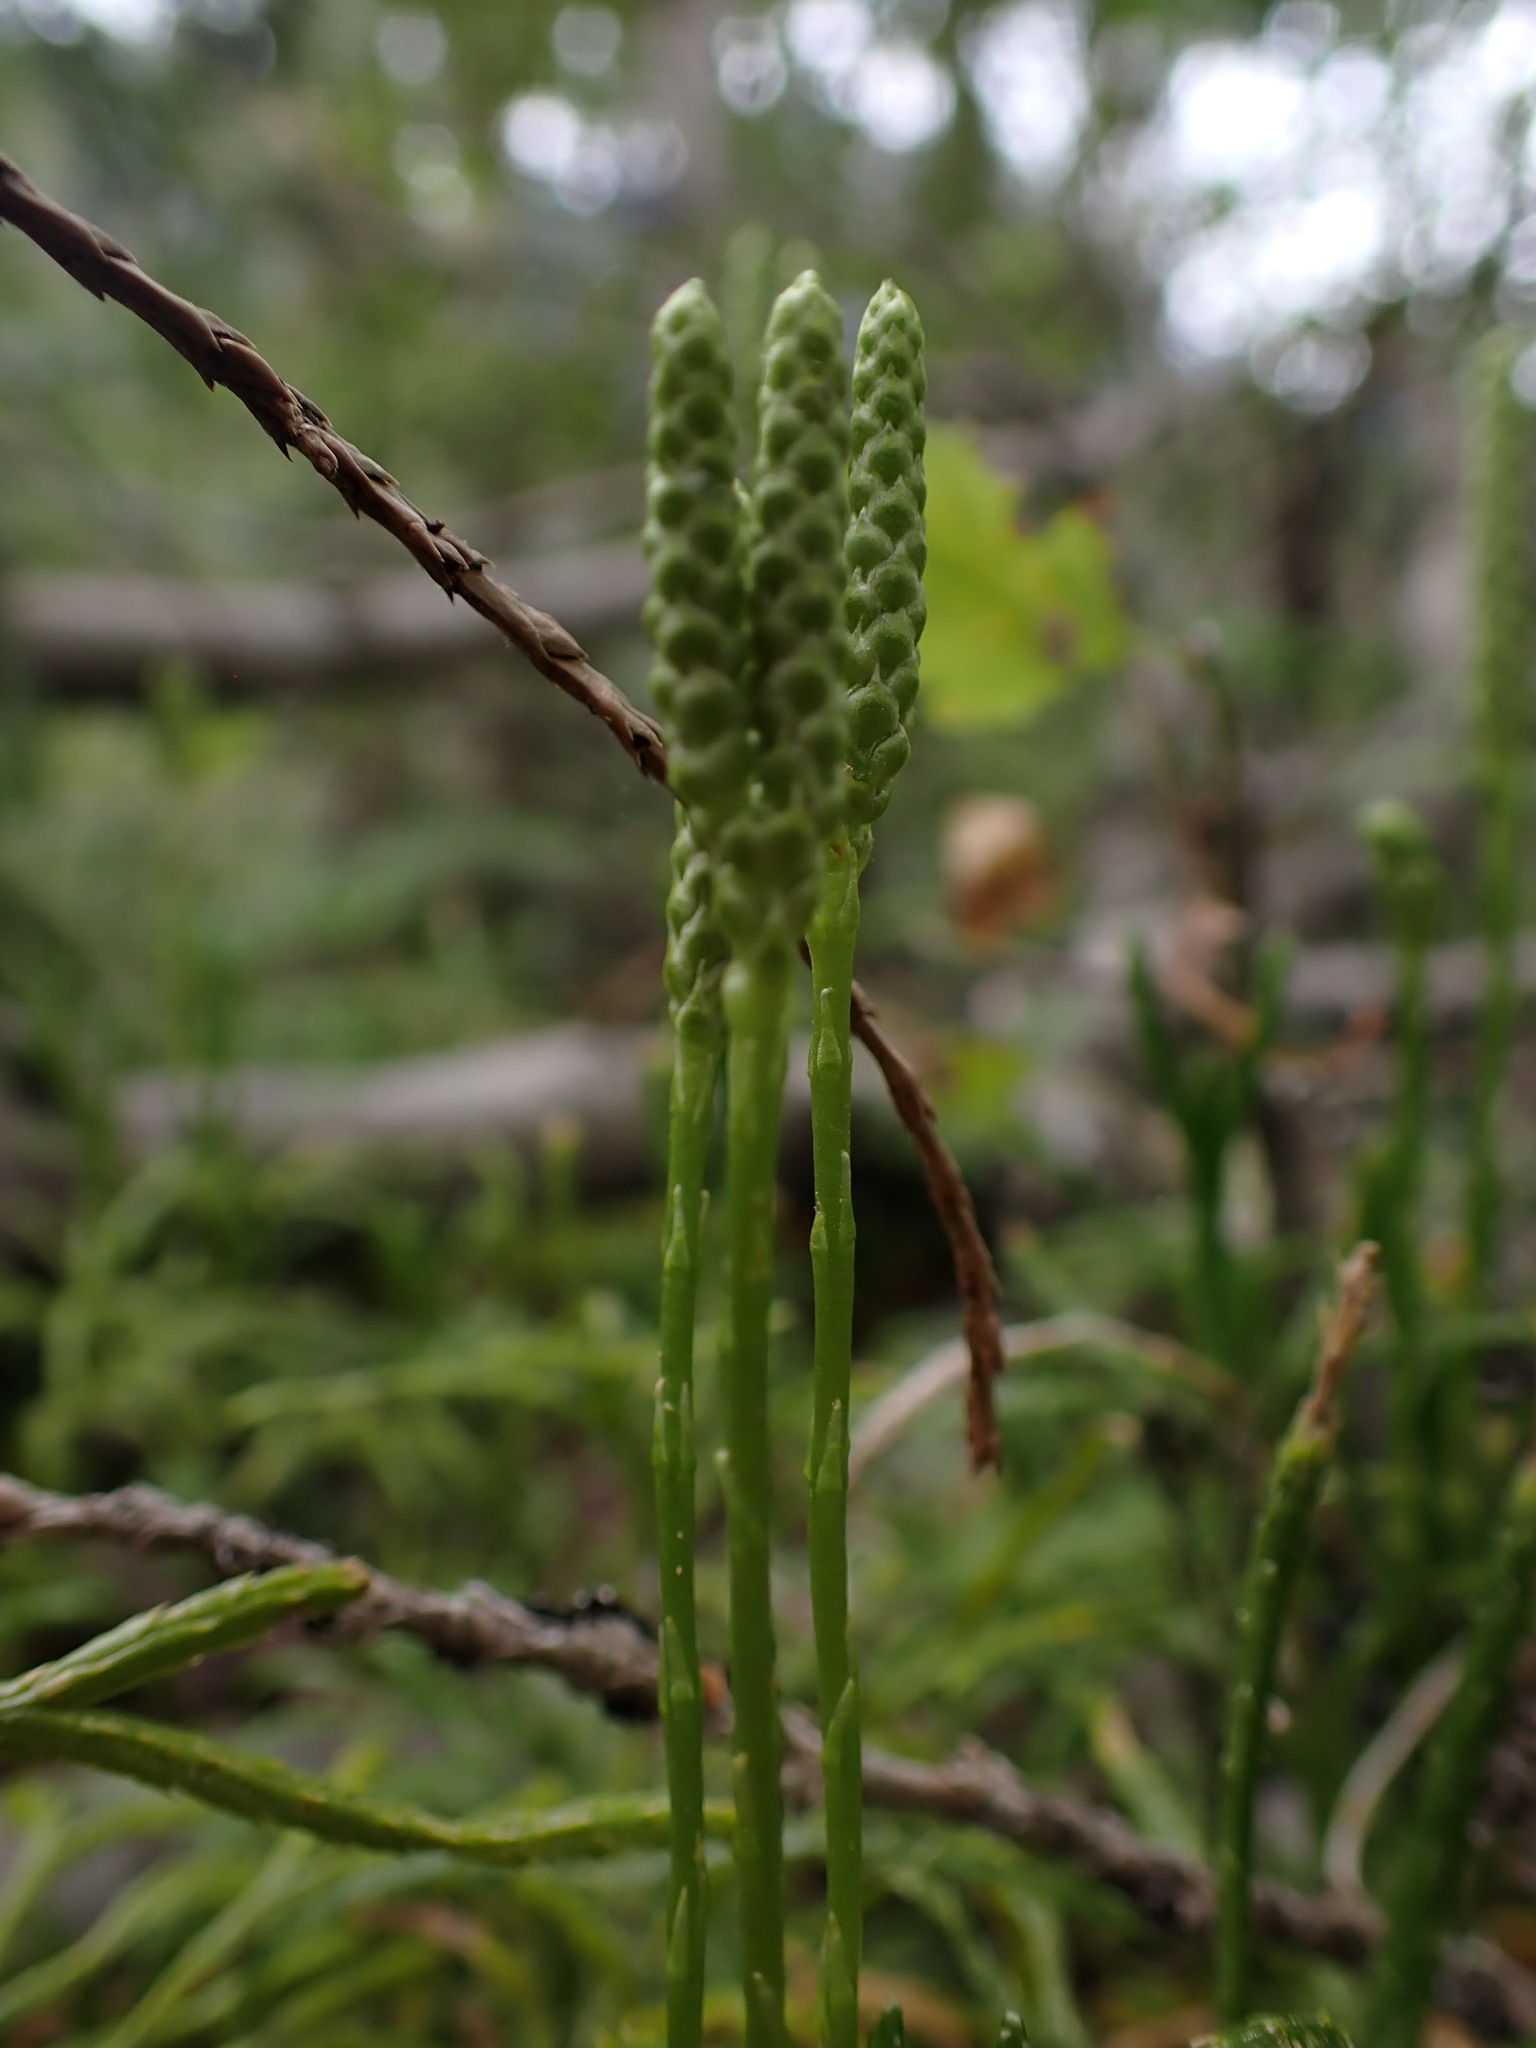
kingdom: Plantae
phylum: Tracheophyta
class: Lycopodiopsida
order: Lycopodiales
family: Lycopodiaceae
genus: Diphasiastrum
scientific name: Diphasiastrum complanatum
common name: Northern running-pine
